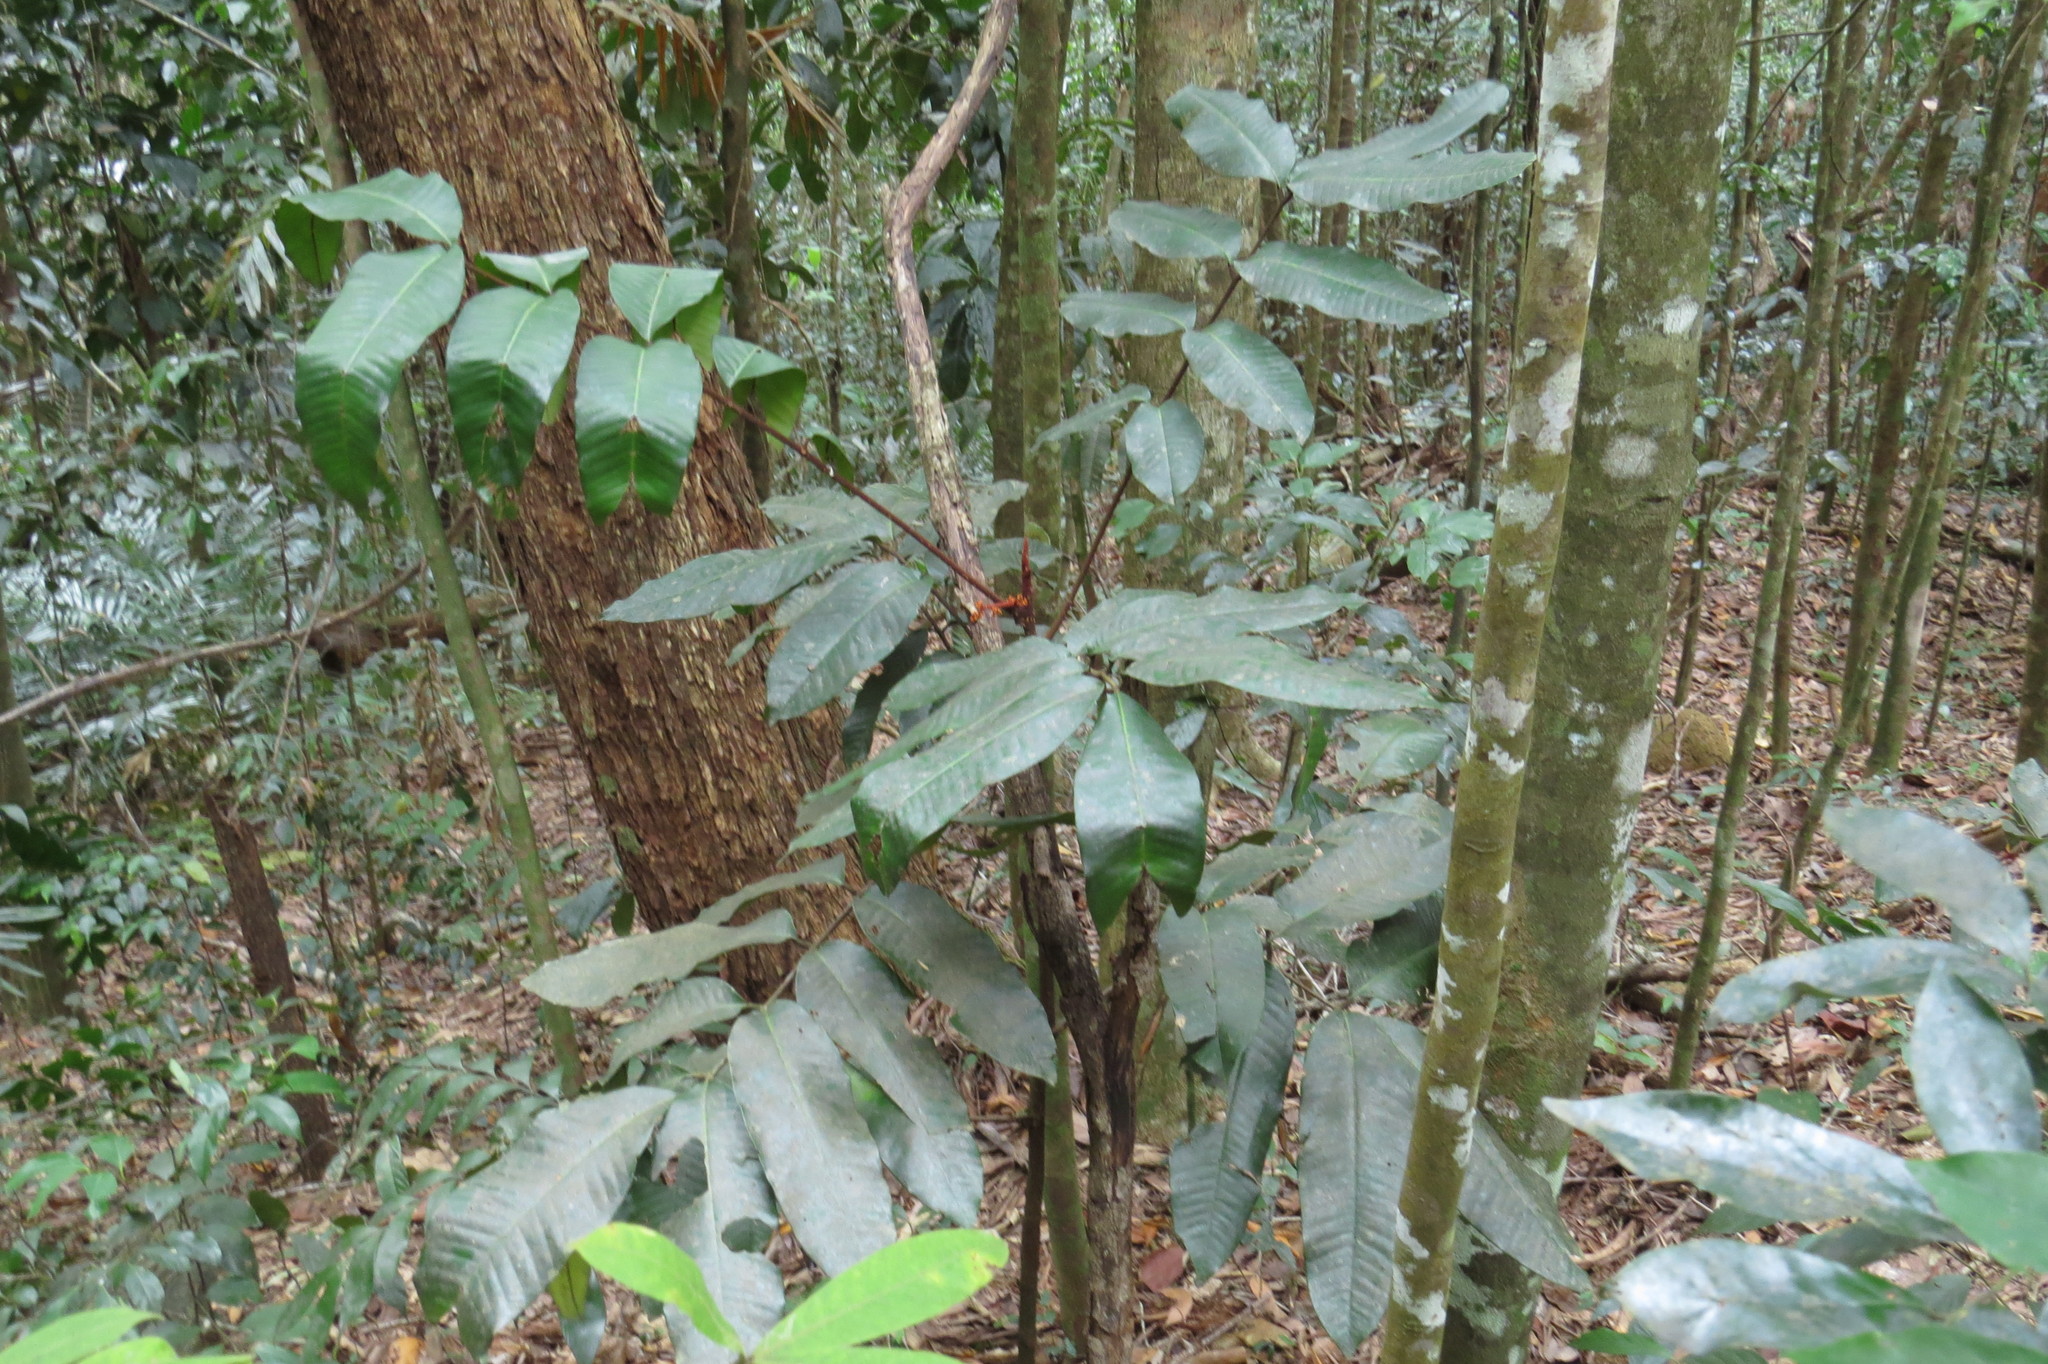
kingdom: Plantae
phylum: Tracheophyta
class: Magnoliopsida
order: Sapindales
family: Meliaceae
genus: Aglaia
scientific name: Aglaia meridionalis
